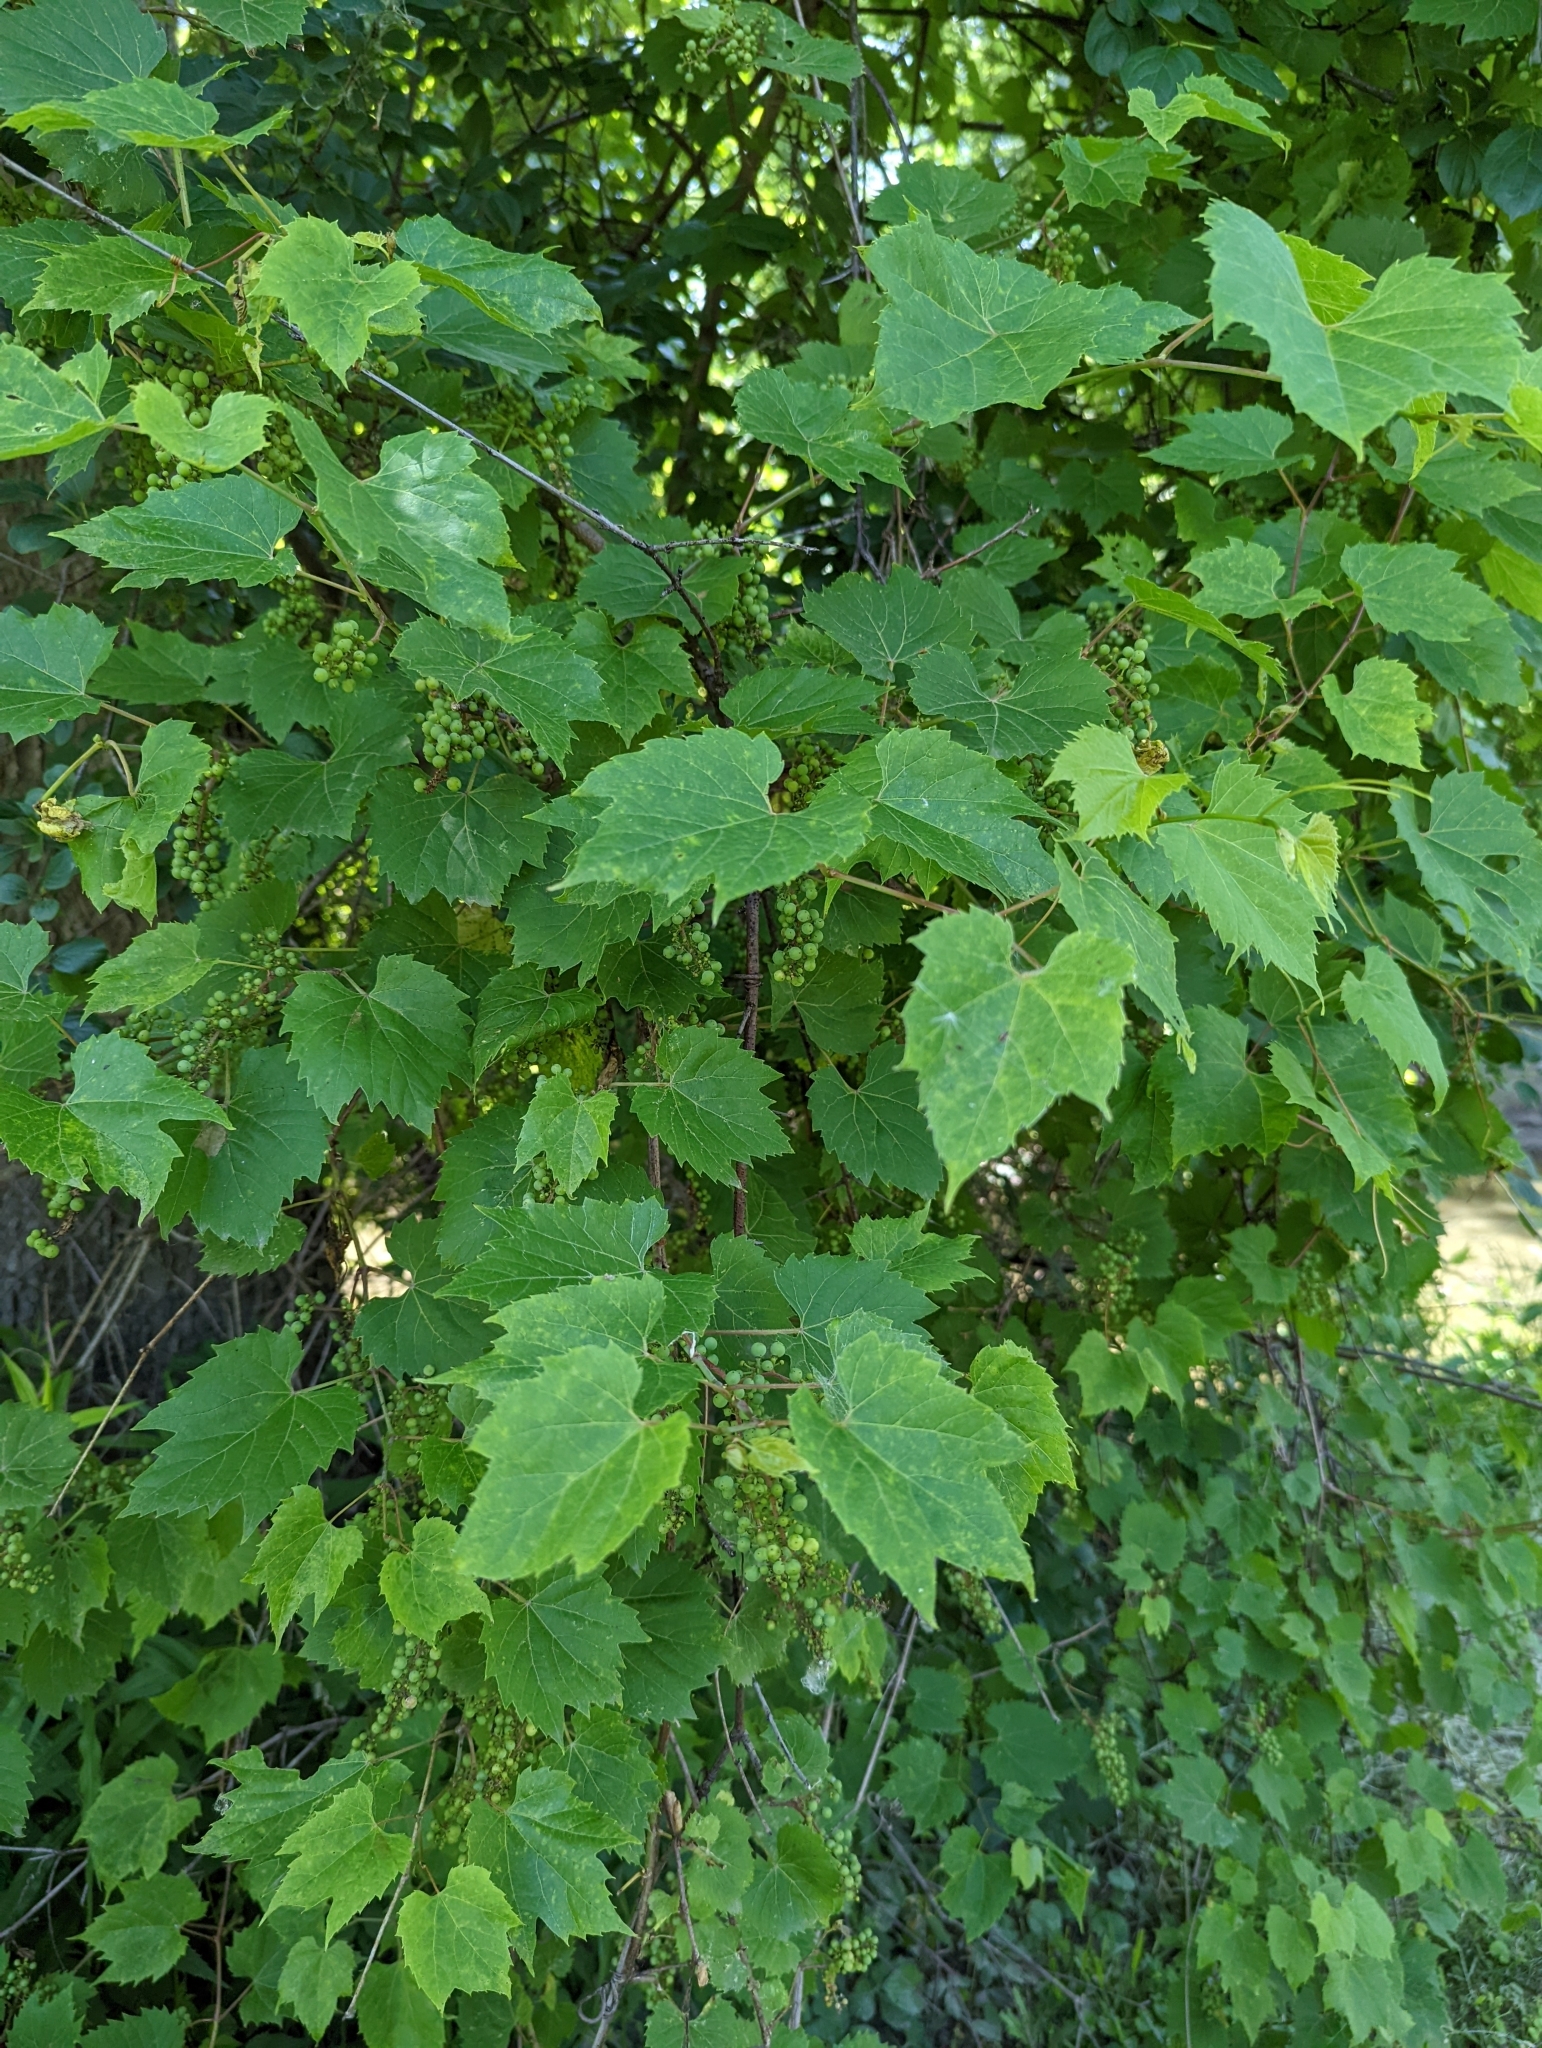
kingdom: Plantae
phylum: Tracheophyta
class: Magnoliopsida
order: Vitales
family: Vitaceae
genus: Vitis
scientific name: Vitis riparia
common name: Frost grape
